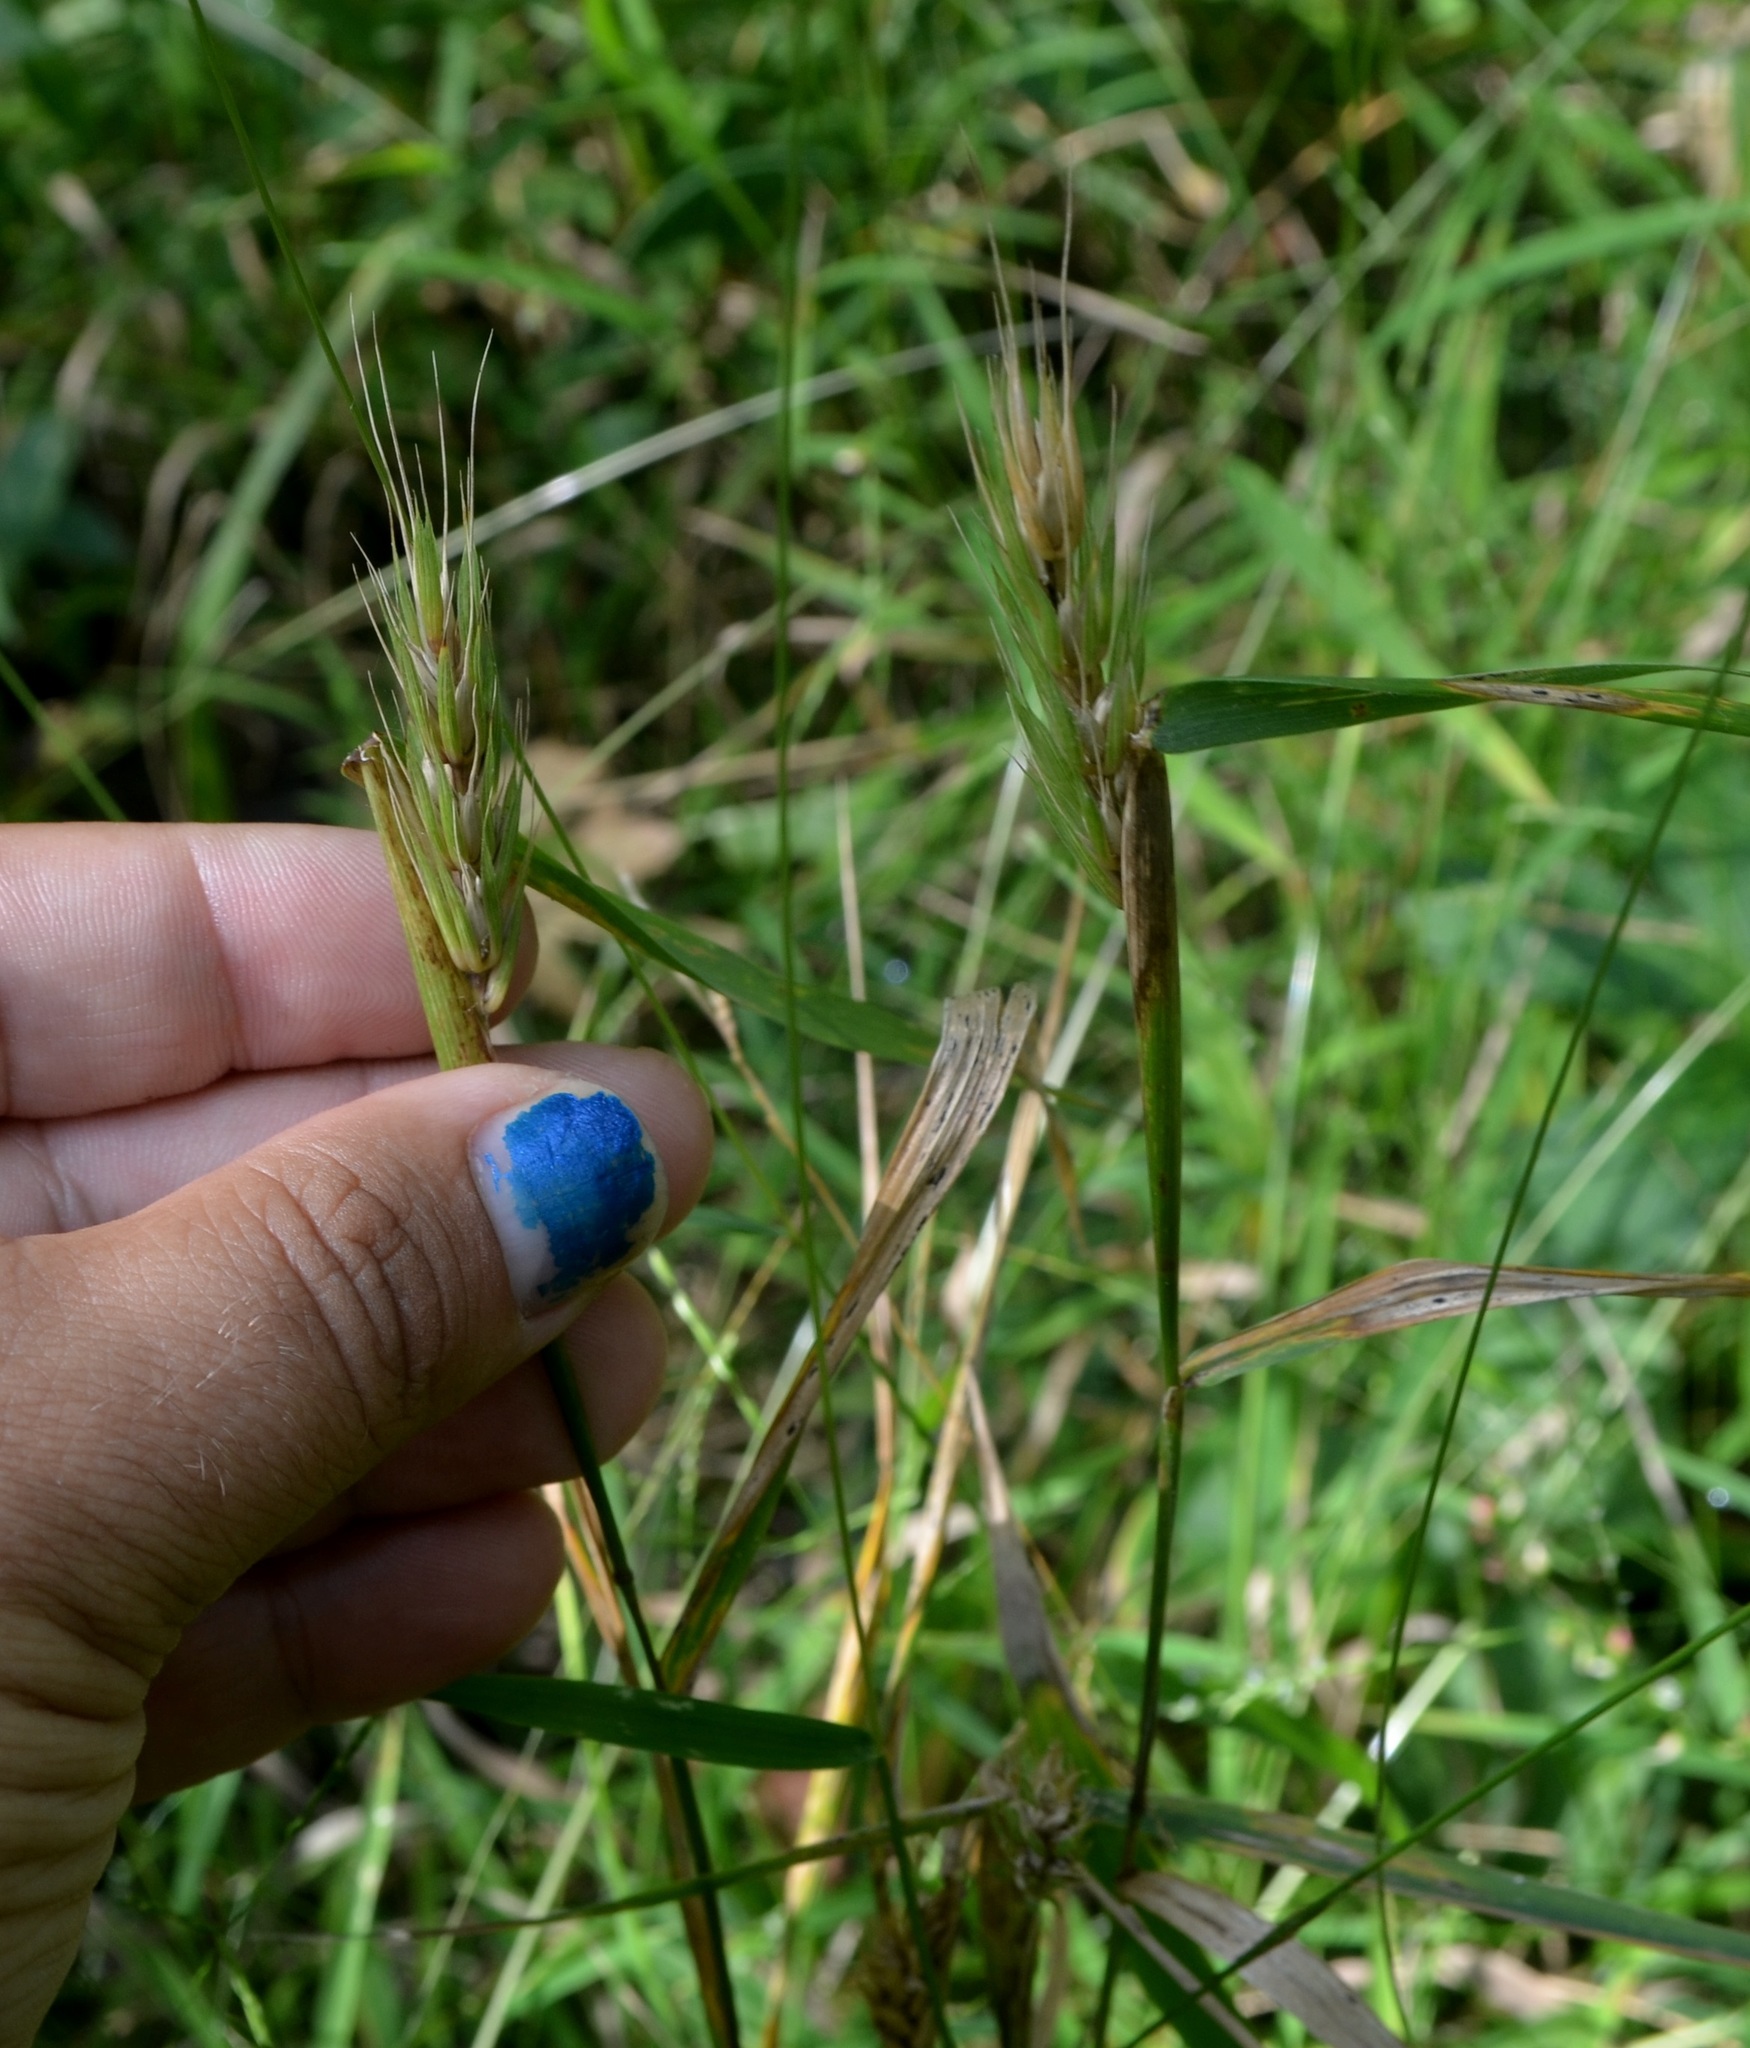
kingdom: Plantae
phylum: Tracheophyta
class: Liliopsida
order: Poales
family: Poaceae
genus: Elymus
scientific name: Elymus virginicus
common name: Common eastern wildrye
